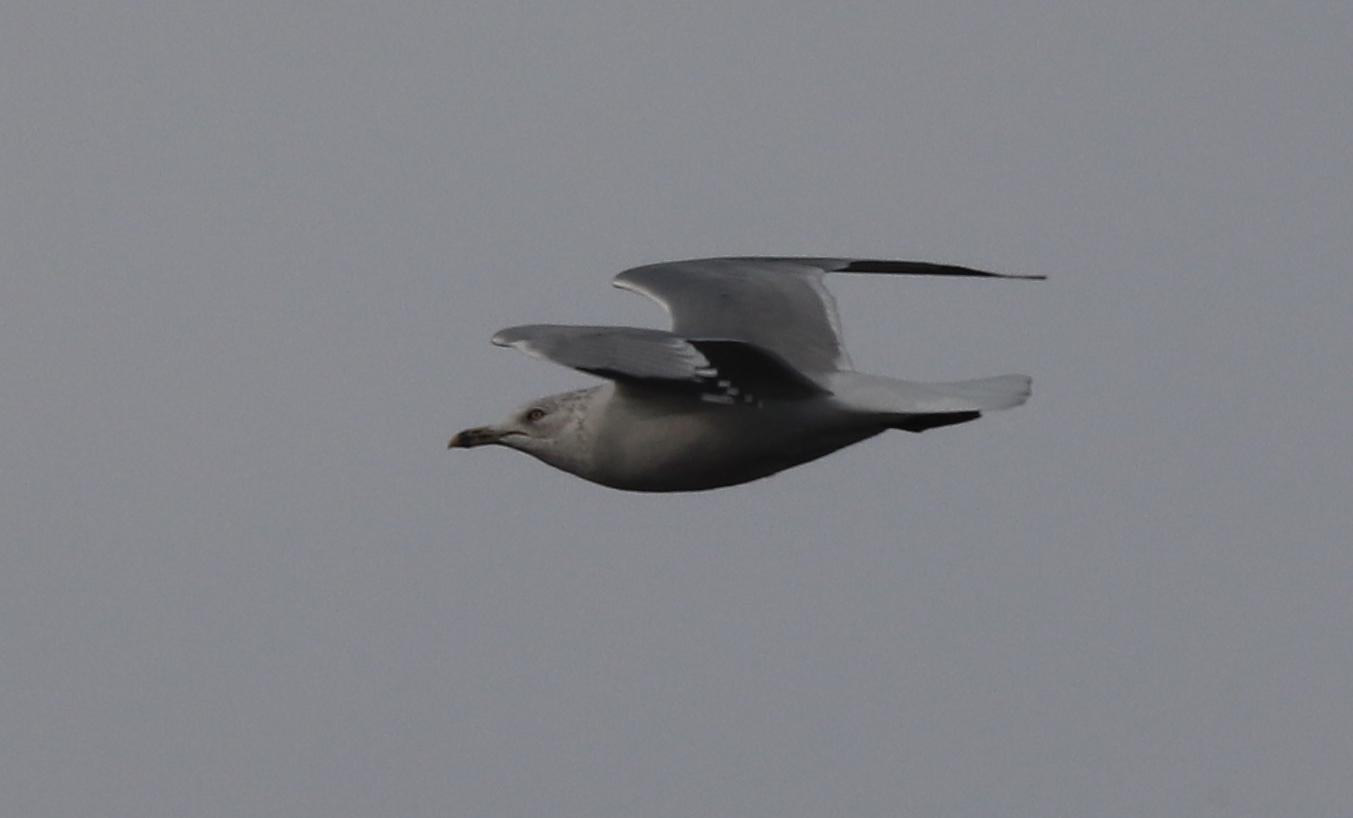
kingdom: Animalia
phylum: Chordata
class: Aves
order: Charadriiformes
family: Laridae
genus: Larus
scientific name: Larus delawarensis
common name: Ring-billed gull
